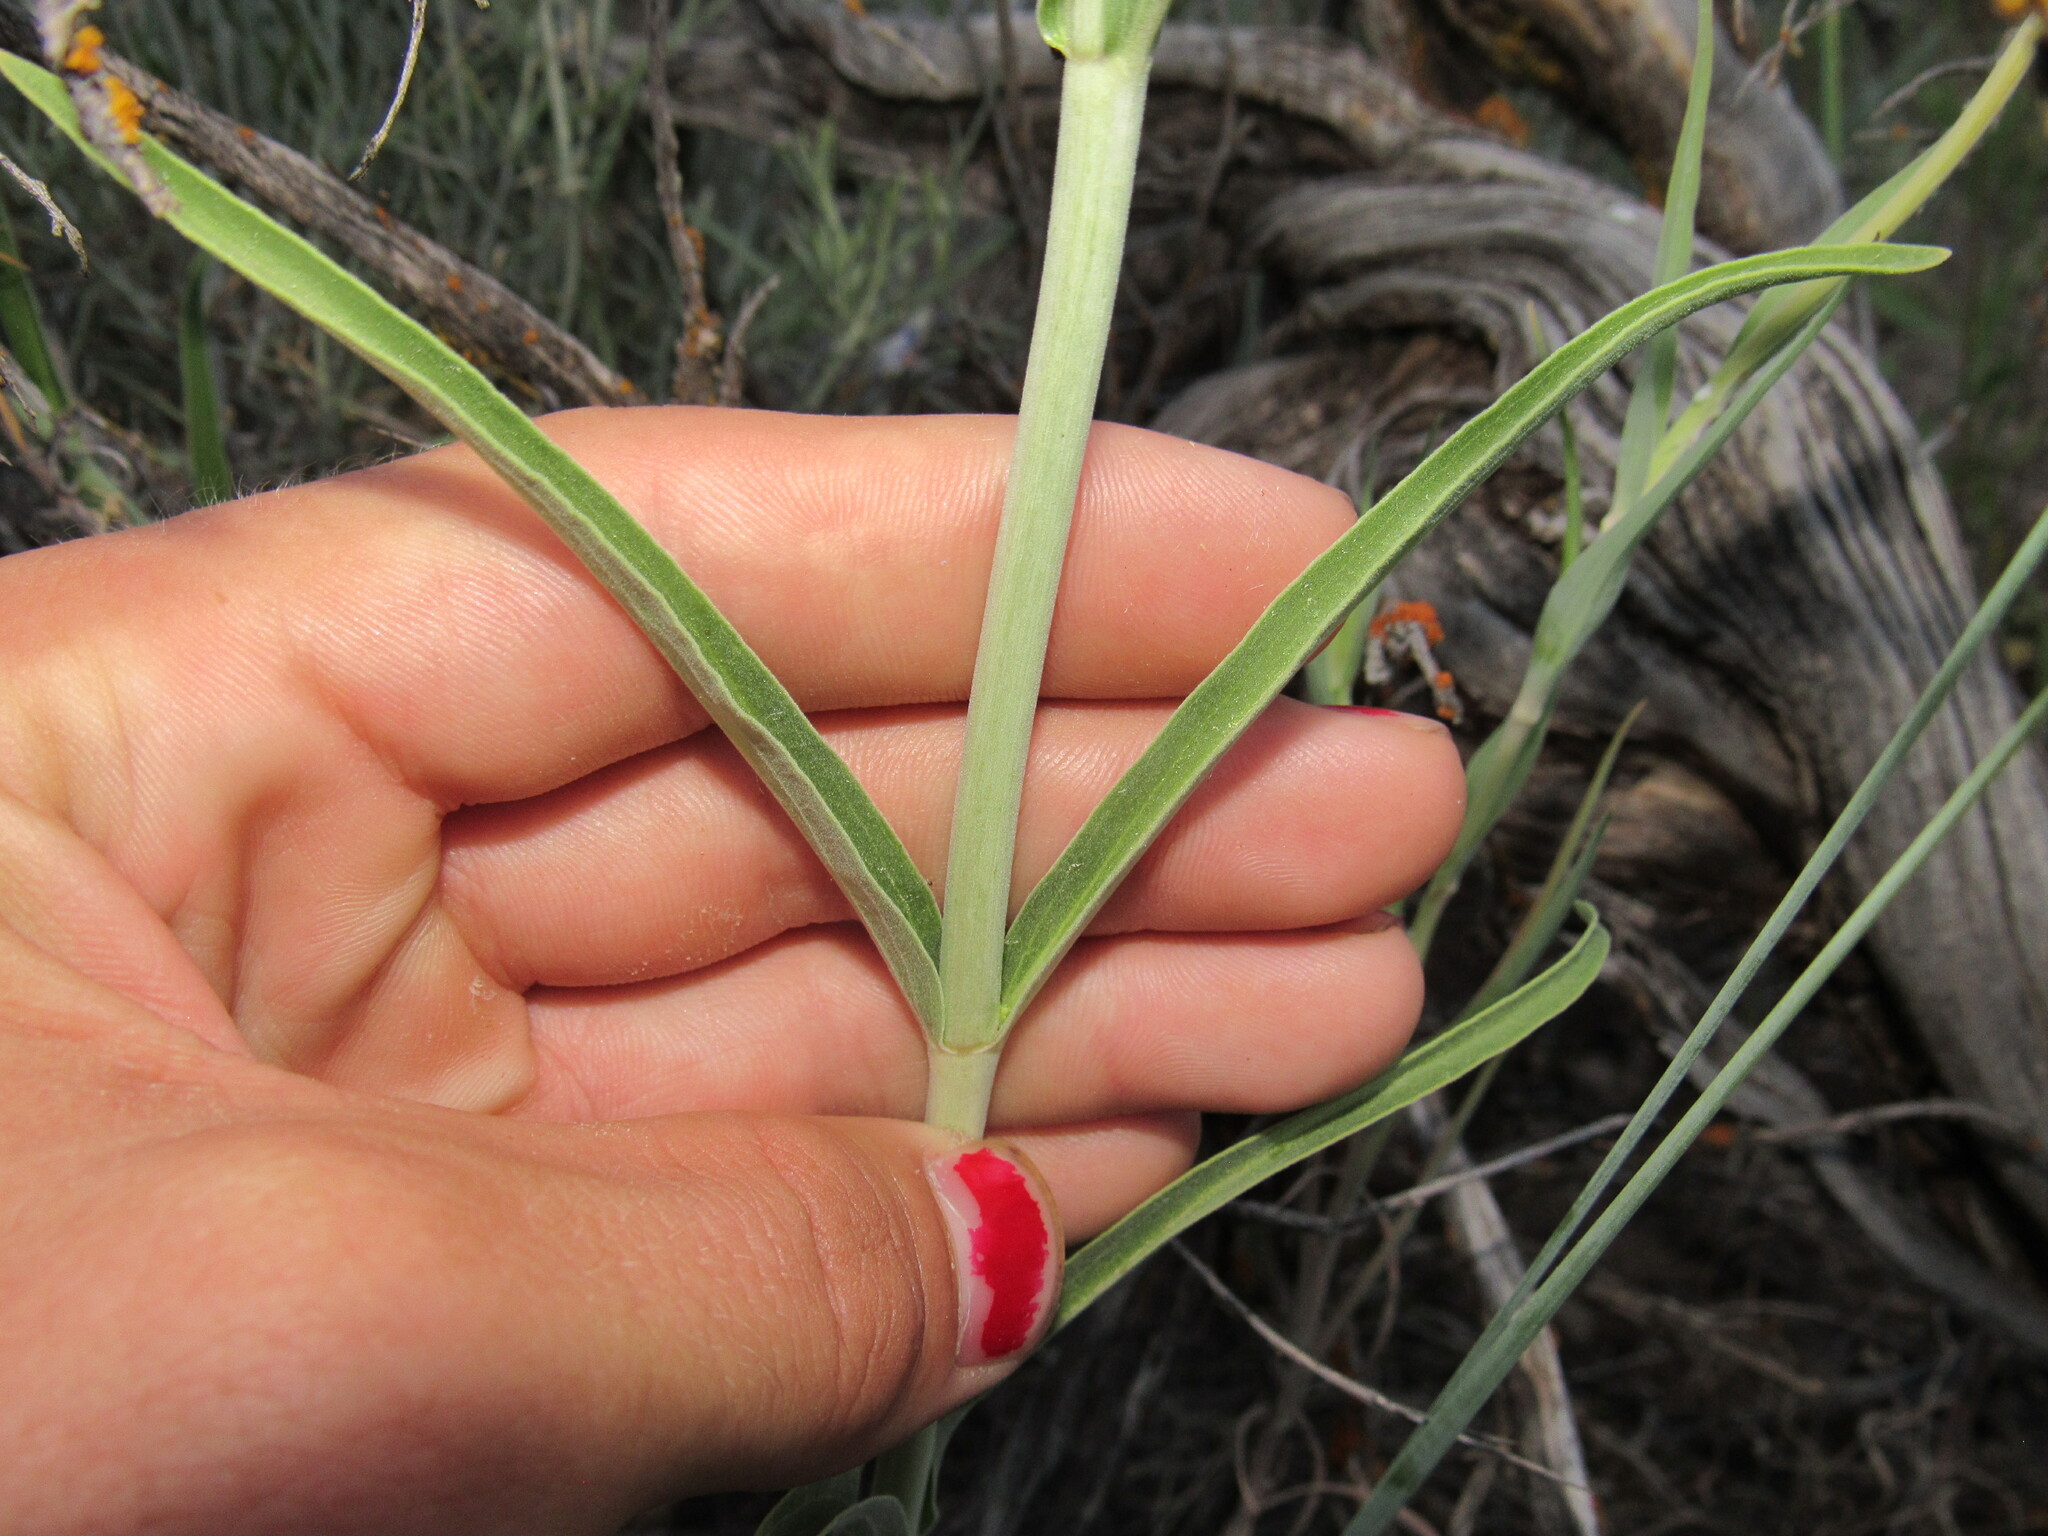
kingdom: Plantae
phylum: Tracheophyta
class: Magnoliopsida
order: Lamiales
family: Plantaginaceae
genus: Penstemon
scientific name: Penstemon comarrhenus
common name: Dusty penstemon
